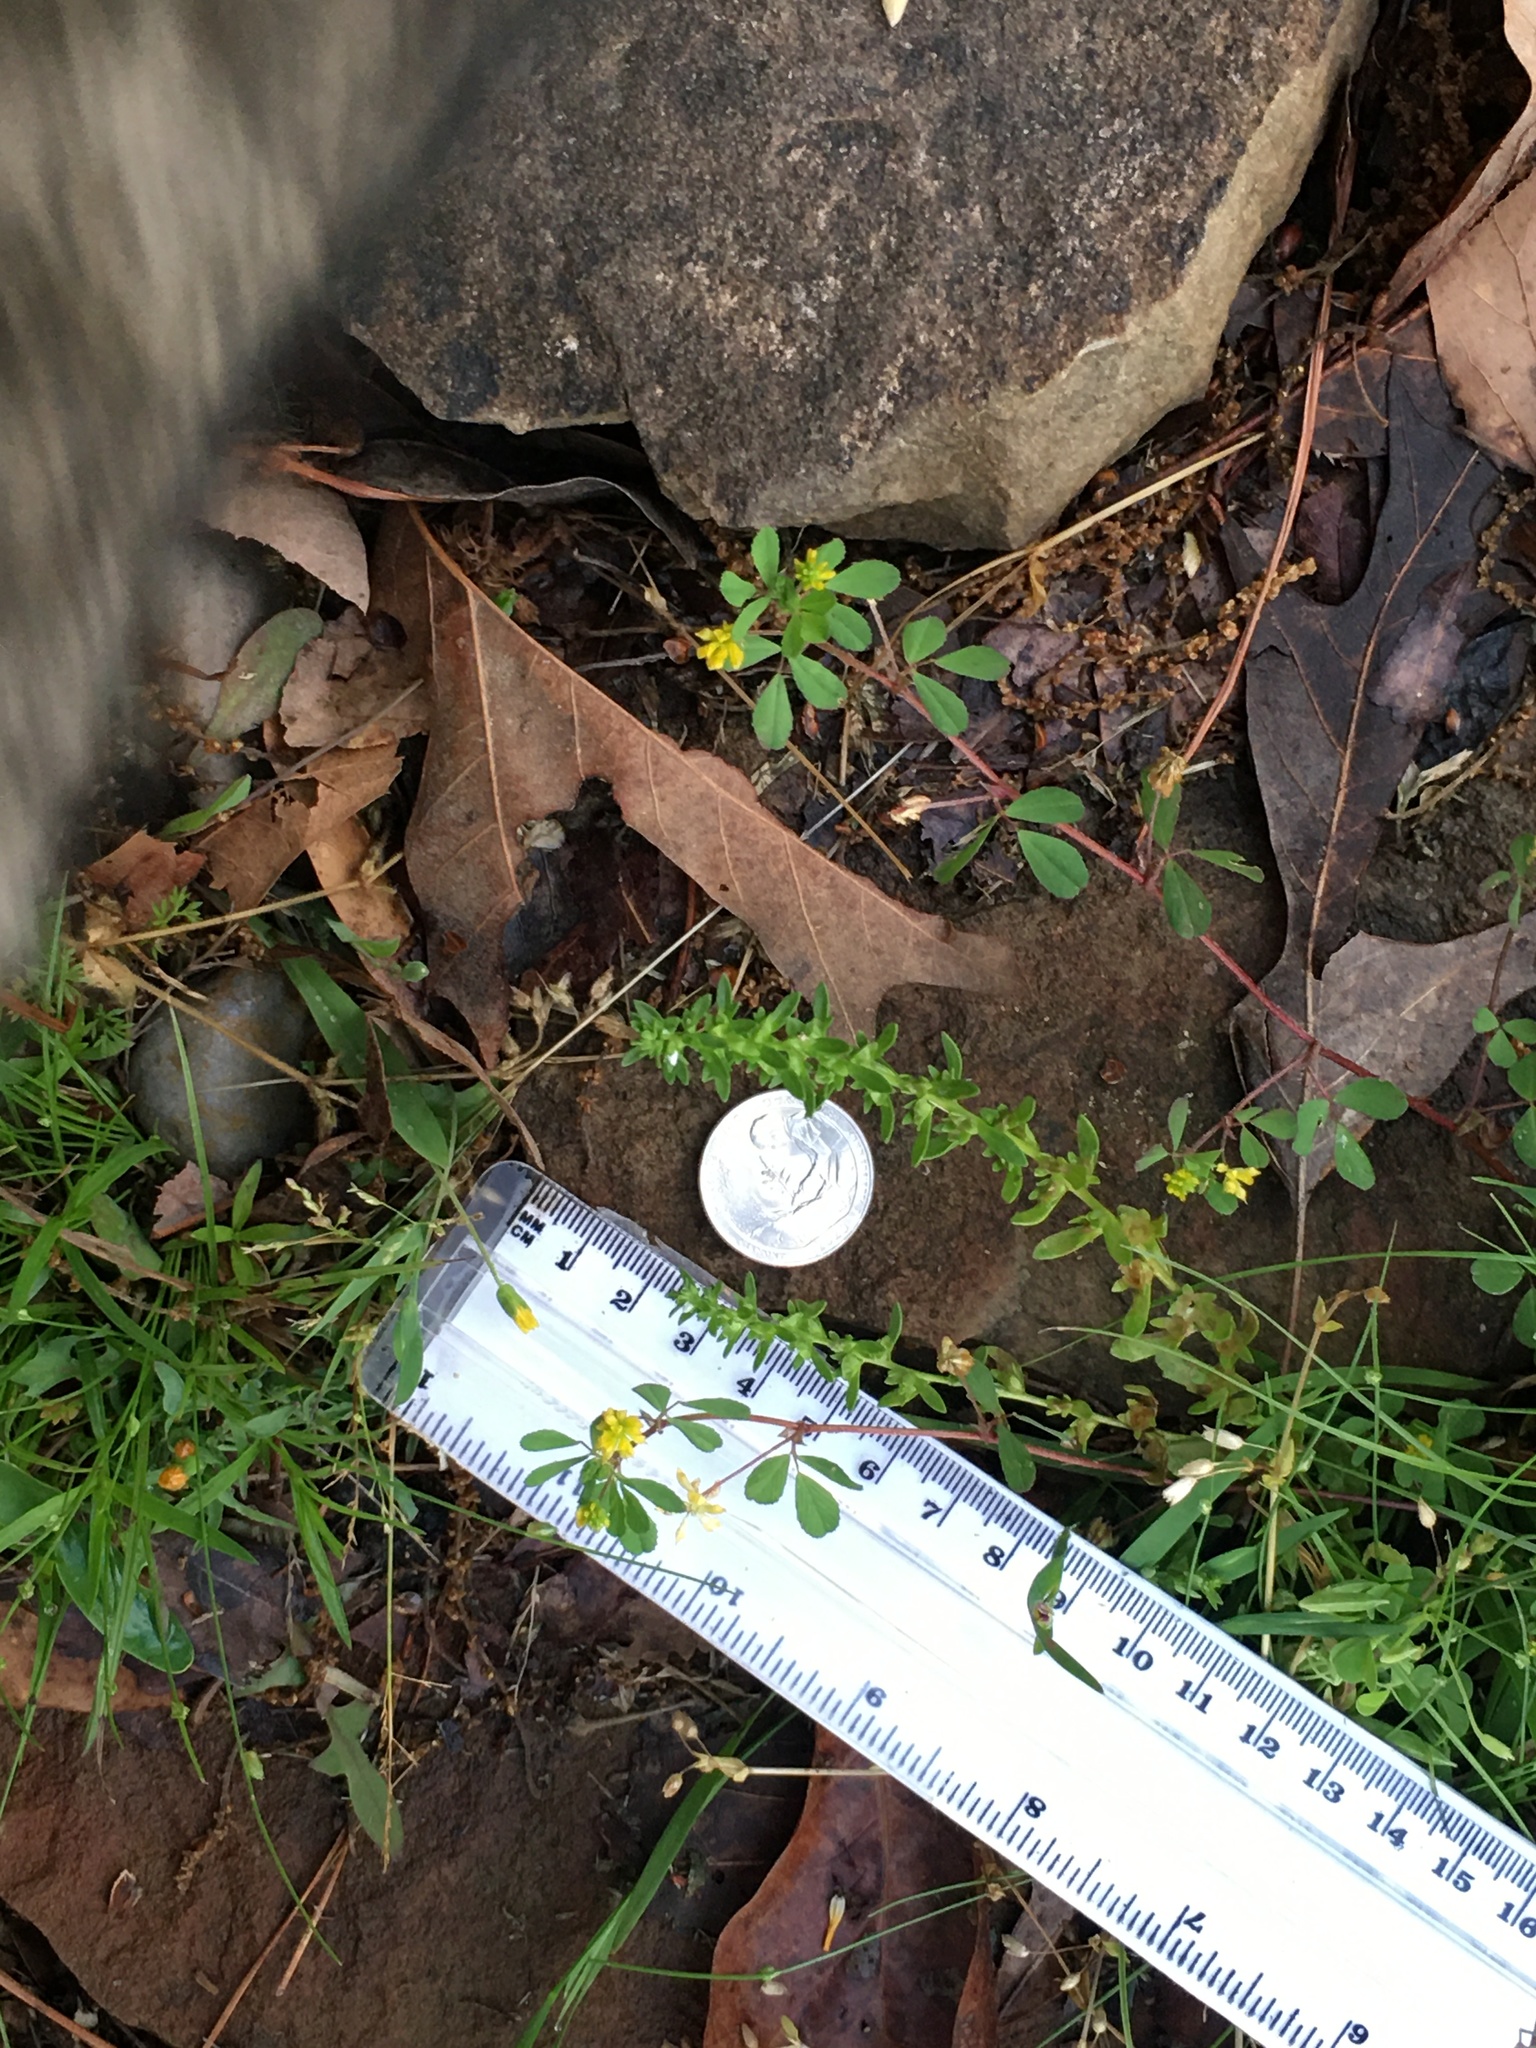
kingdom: Plantae
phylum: Tracheophyta
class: Magnoliopsida
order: Lamiales
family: Plantaginaceae
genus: Veronica
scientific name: Veronica peregrina
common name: Neckweed
